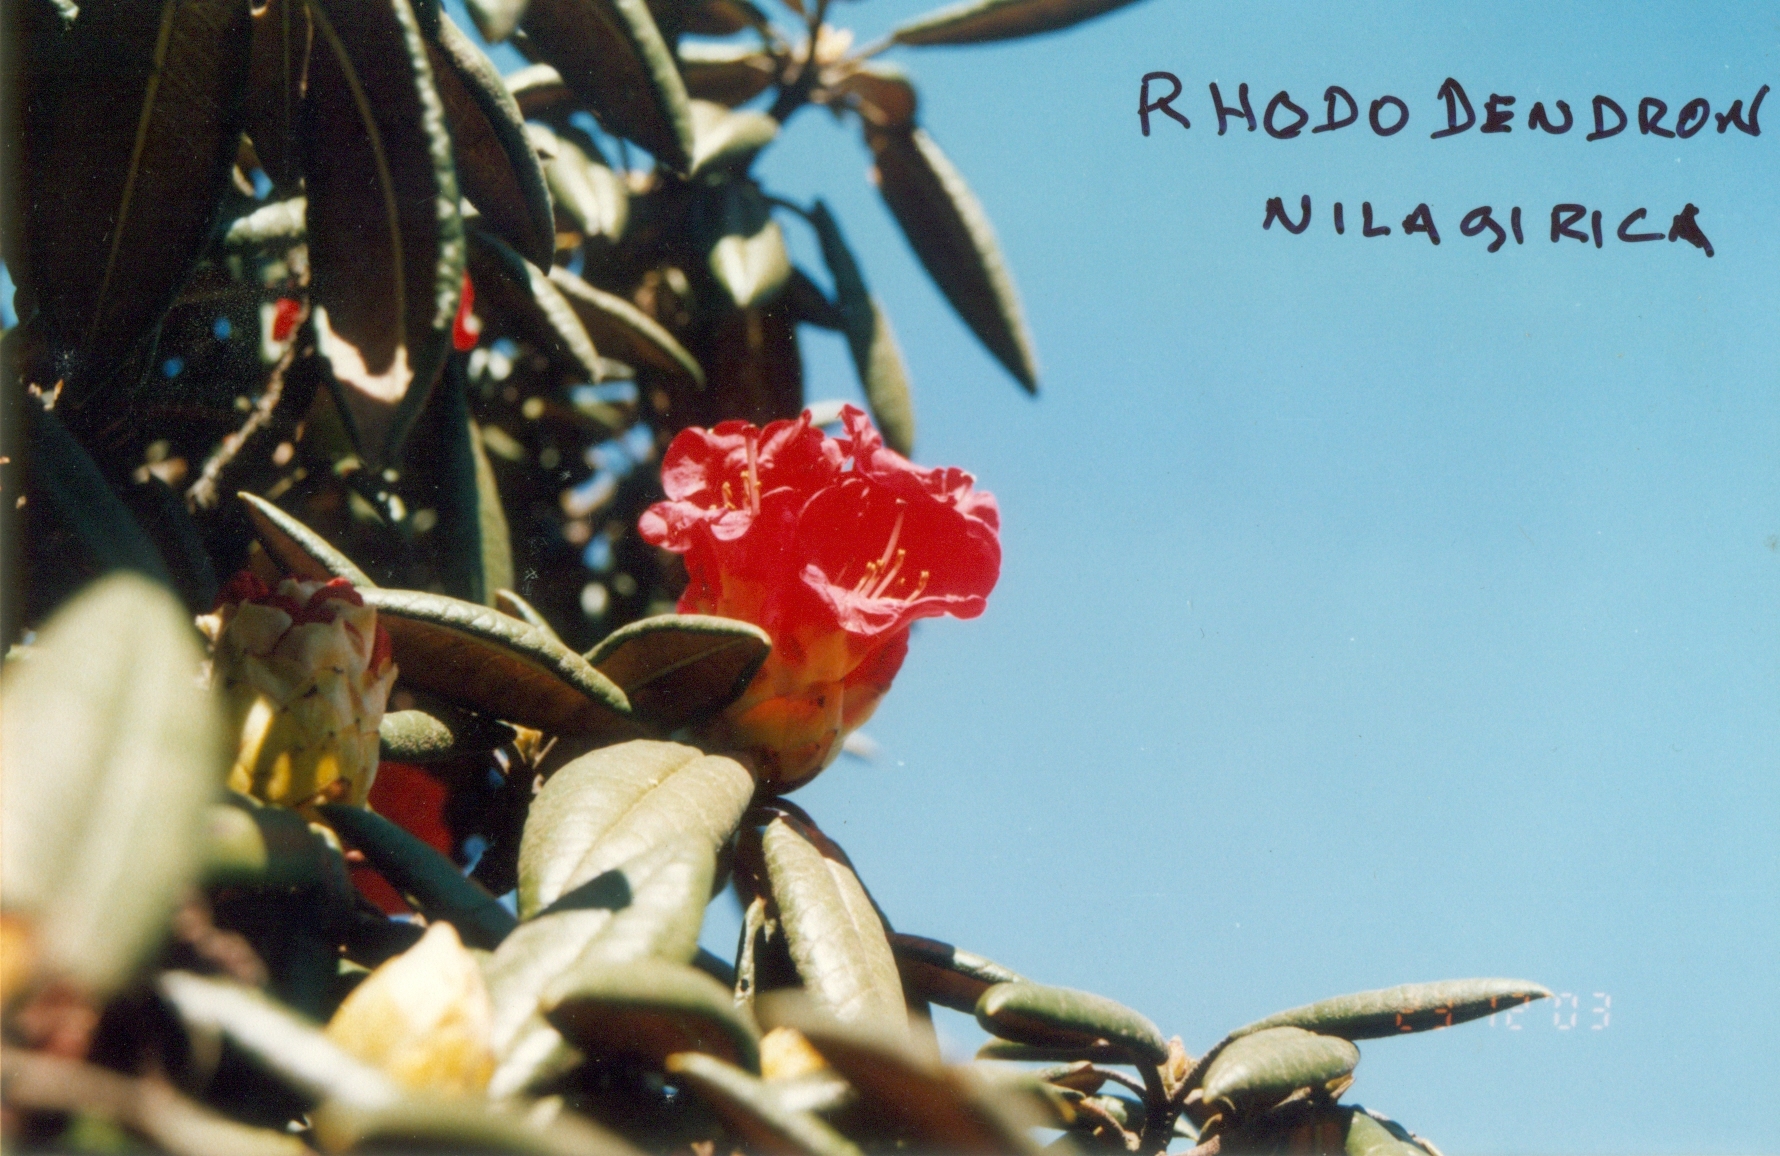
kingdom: Plantae
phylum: Tracheophyta
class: Magnoliopsida
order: Ericales
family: Ericaceae
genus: Rhododendron
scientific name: Rhododendron arboreum
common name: Tree rhododendron
